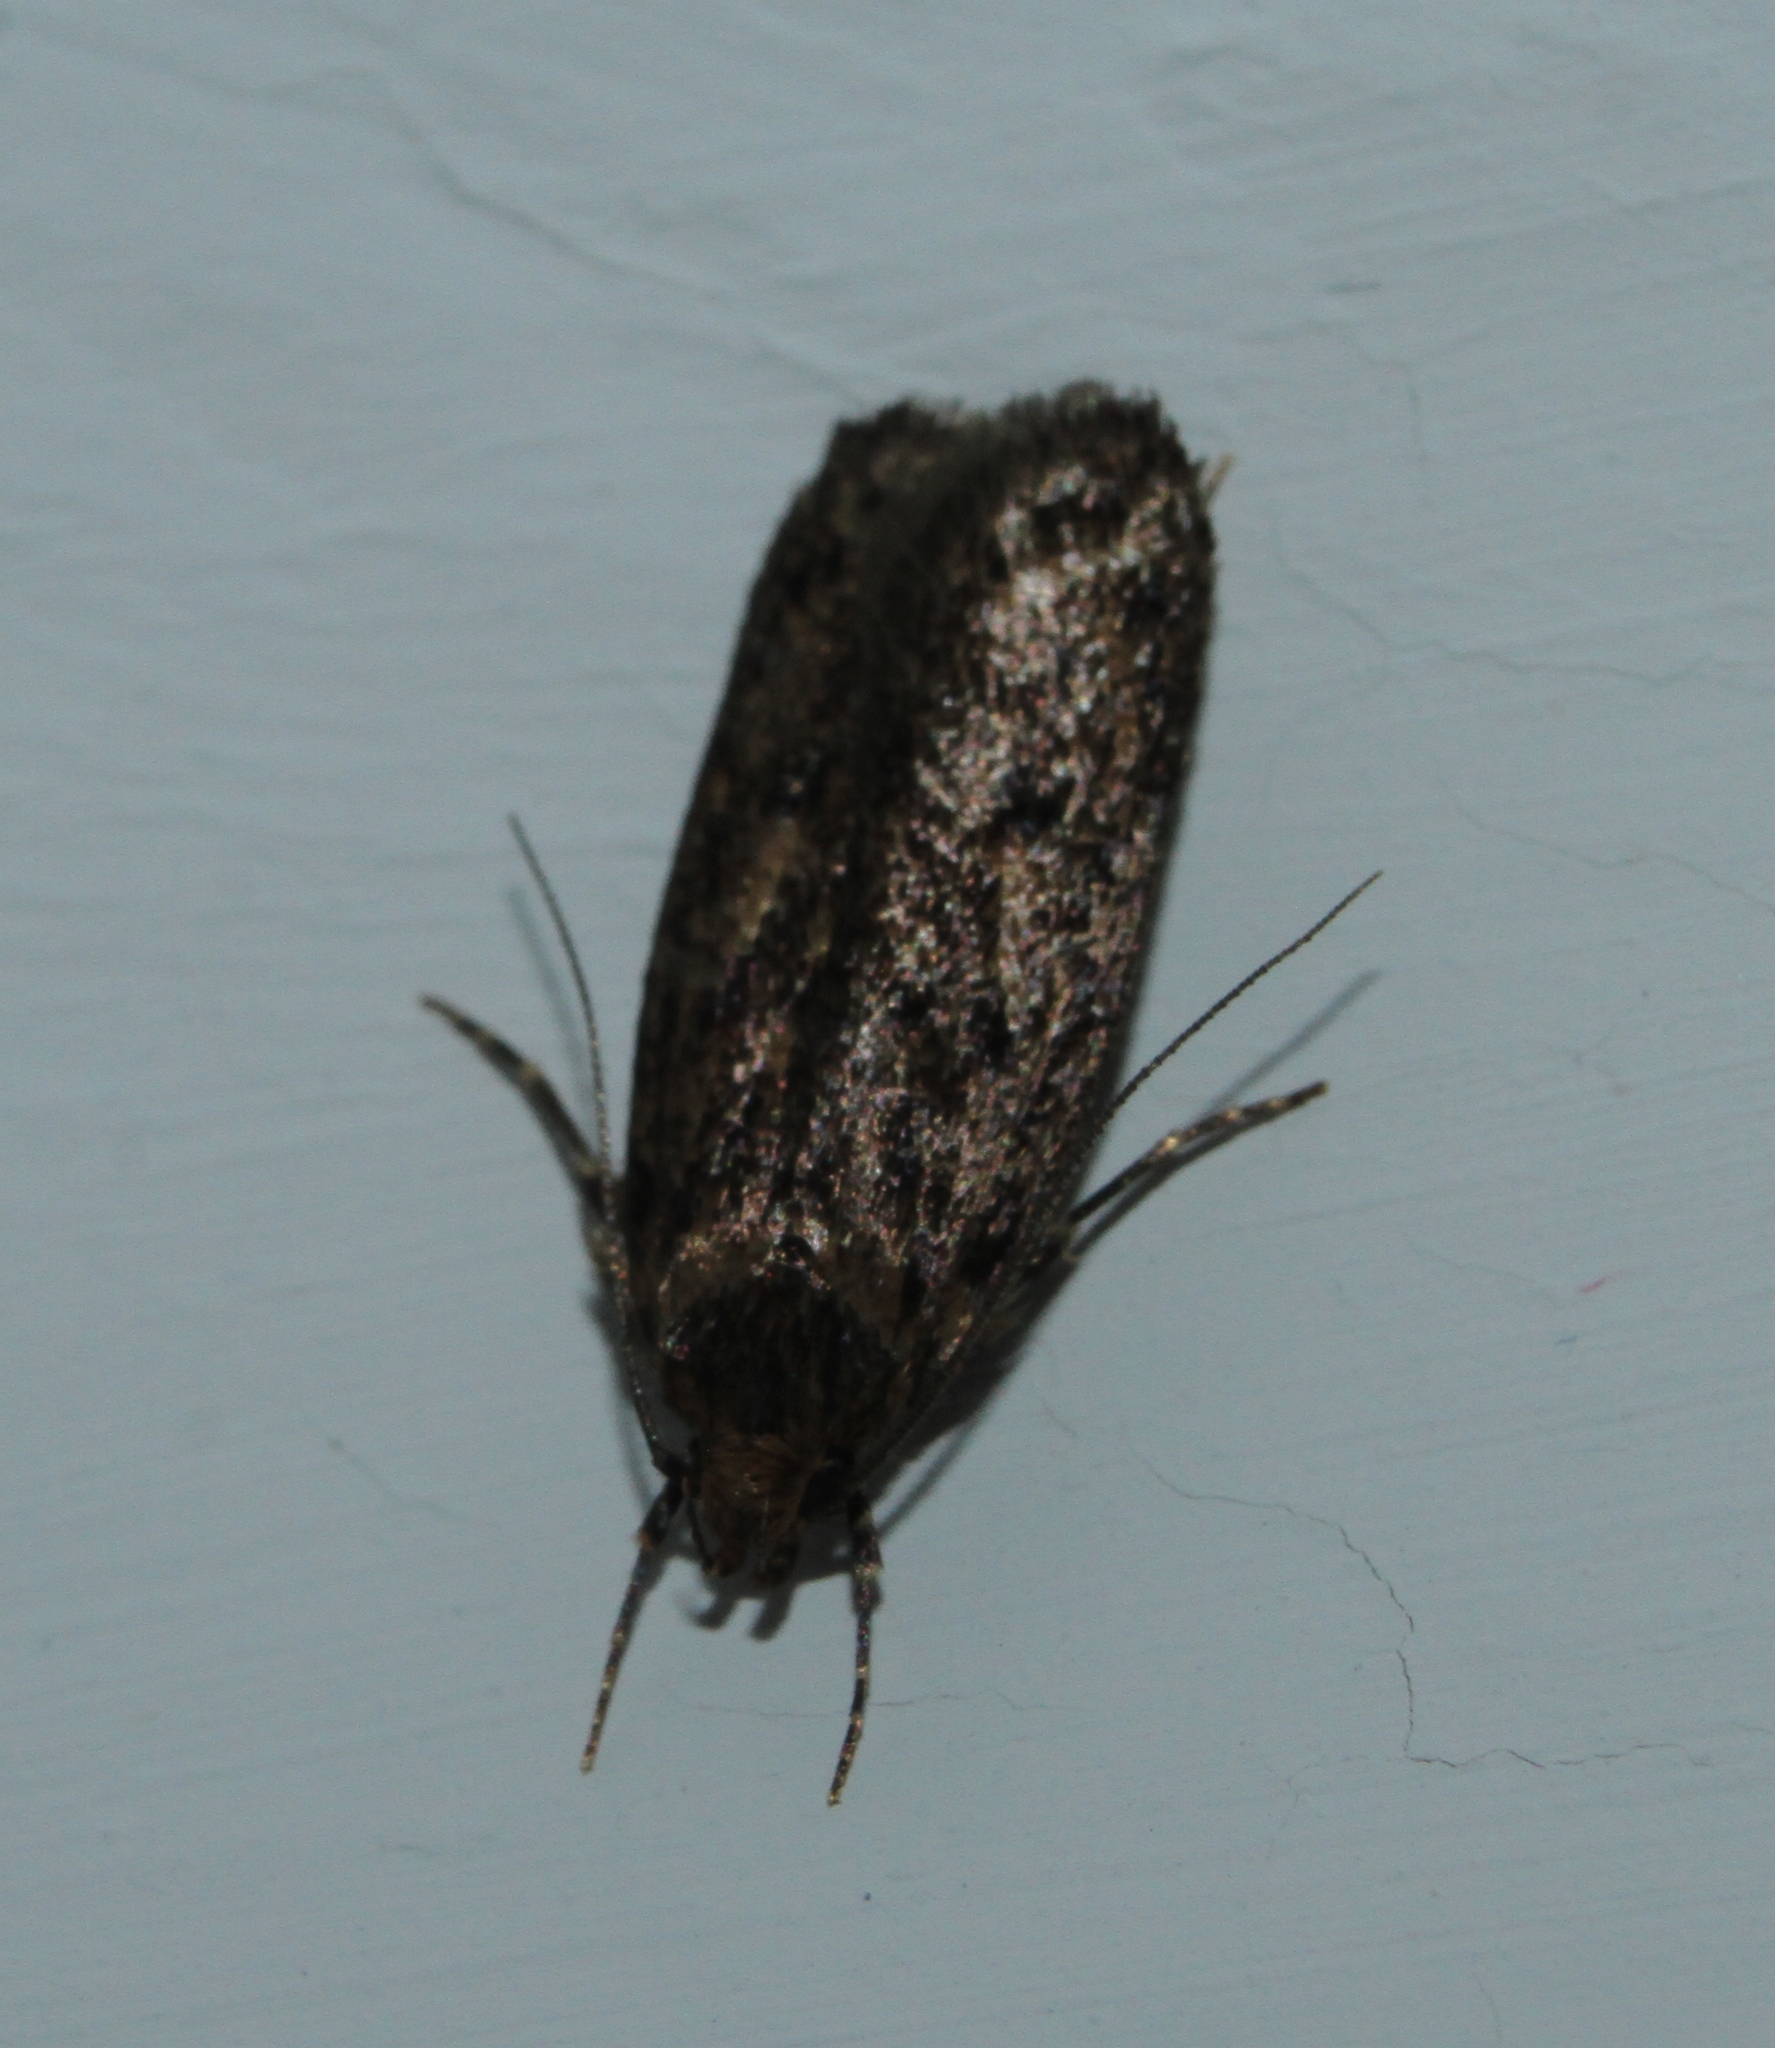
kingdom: Animalia
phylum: Arthropoda
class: Insecta
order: Lepidoptera
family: Oecophoridae
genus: Hofmannophila
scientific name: Hofmannophila pseudospretella
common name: Brown house moth
